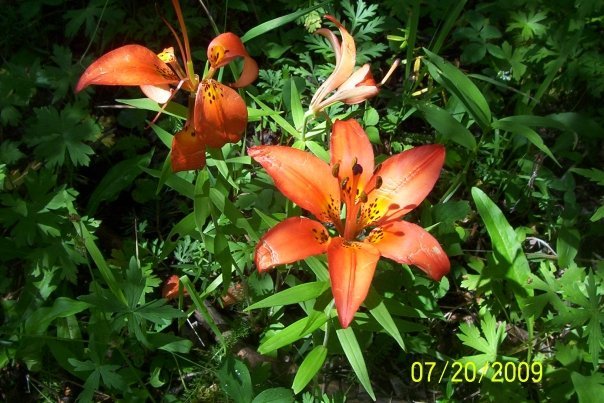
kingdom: Plantae
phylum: Tracheophyta
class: Liliopsida
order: Liliales
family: Liliaceae
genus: Lilium
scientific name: Lilium philadelphicum
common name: Red lily
